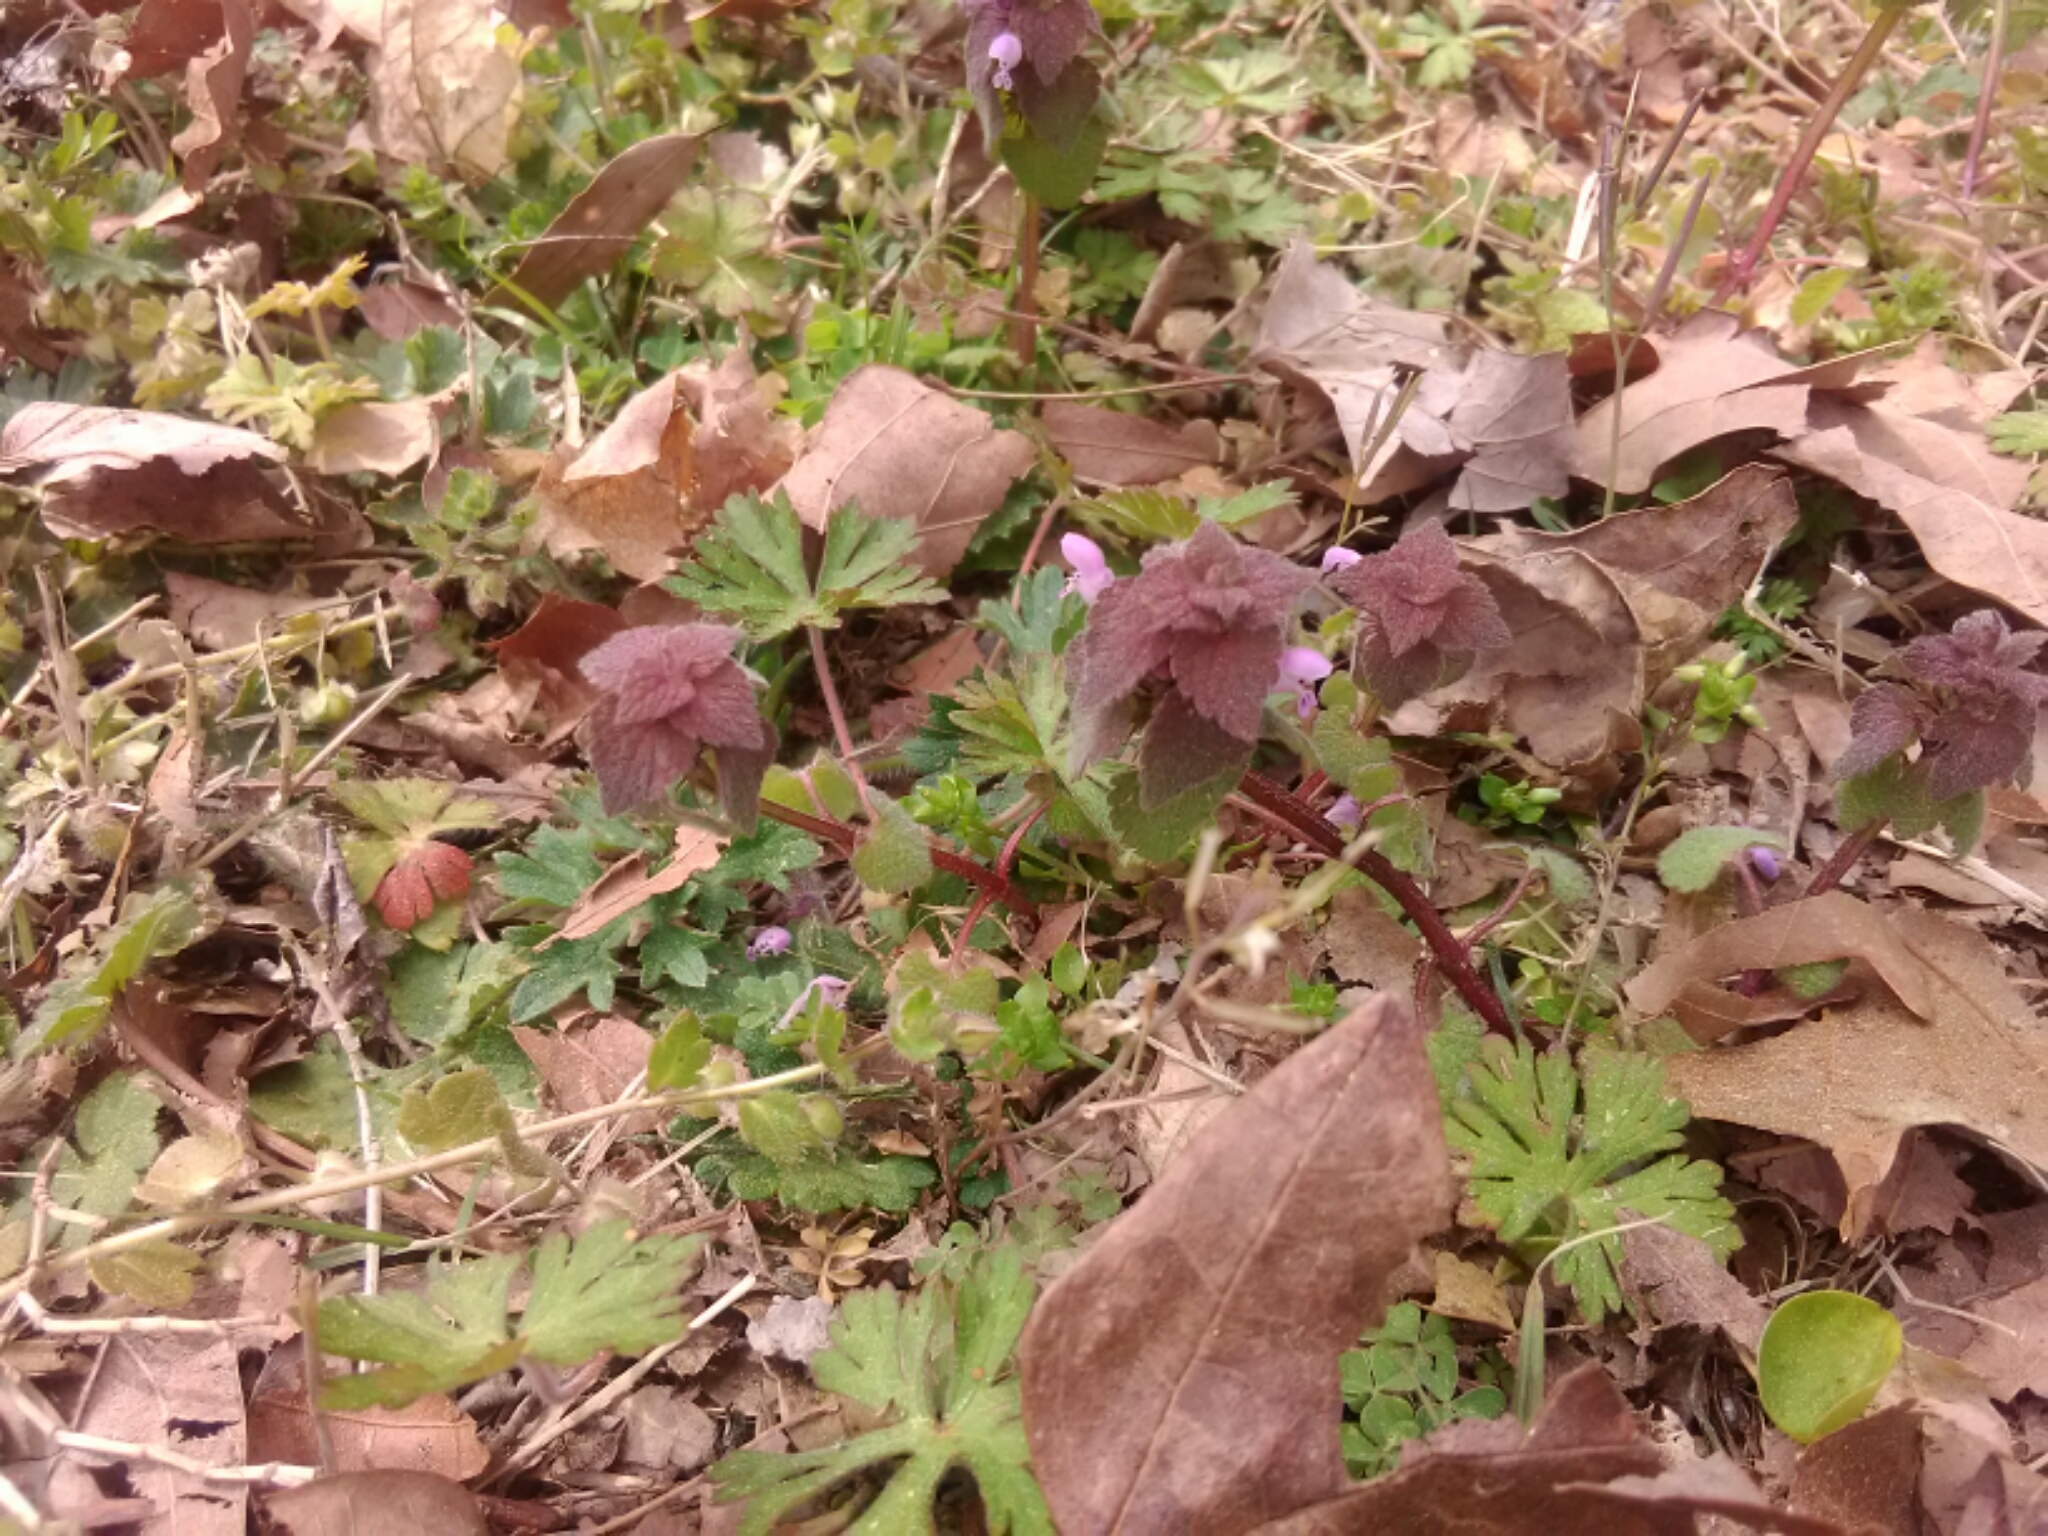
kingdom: Plantae
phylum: Tracheophyta
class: Magnoliopsida
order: Lamiales
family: Lamiaceae
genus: Lamium
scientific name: Lamium purpureum
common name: Red dead-nettle
